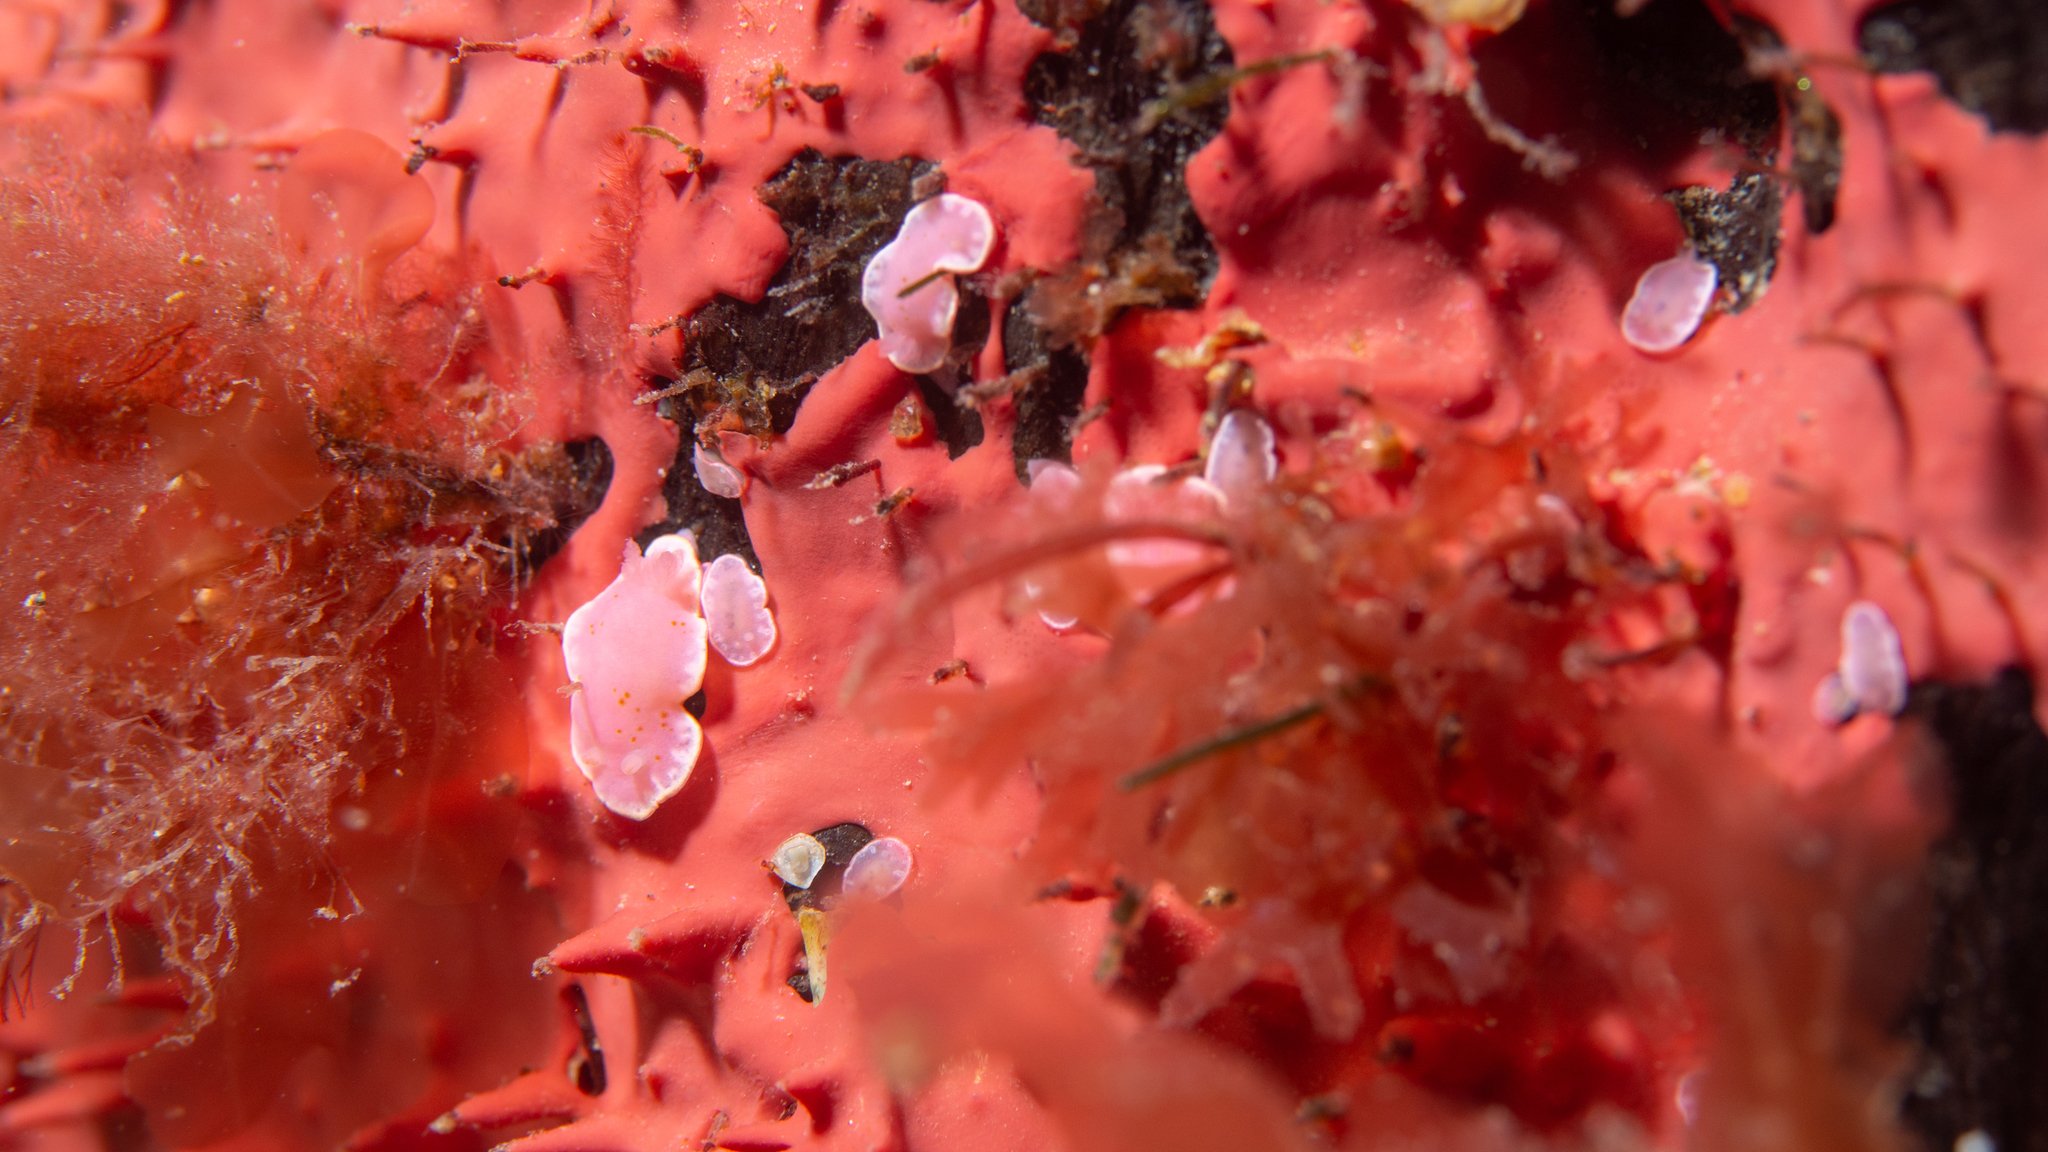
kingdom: Animalia
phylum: Mollusca
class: Gastropoda
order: Nudibranchia
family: Chromodorididae
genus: Verconia
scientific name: Verconia haliclona
